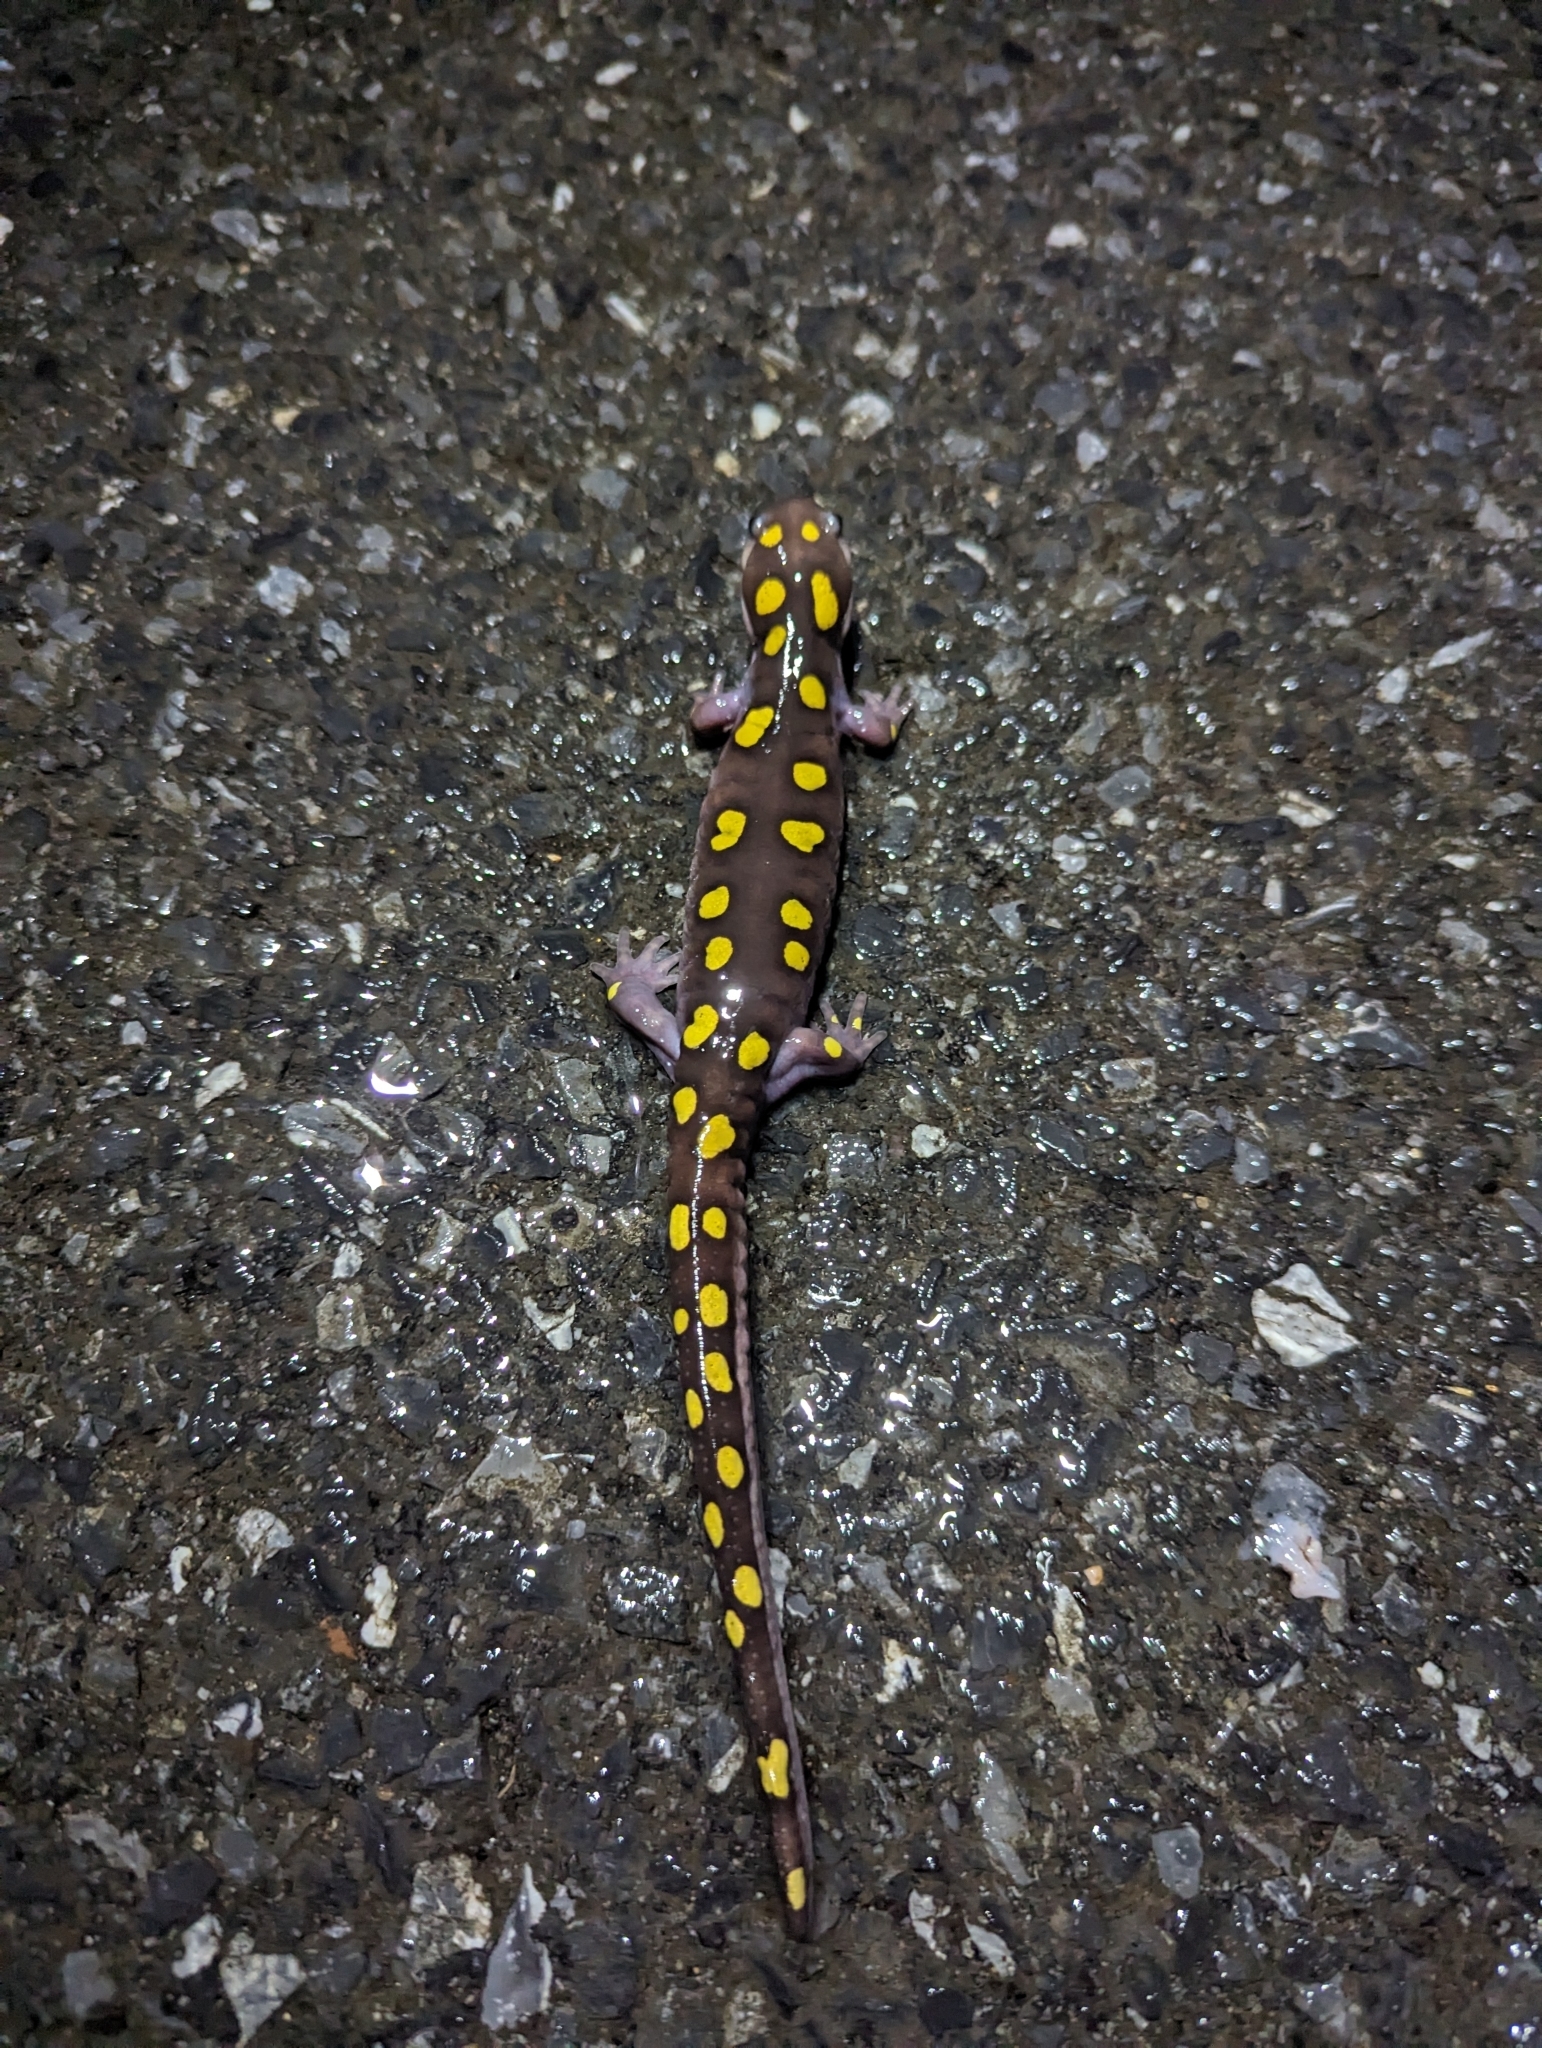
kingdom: Animalia
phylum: Chordata
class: Amphibia
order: Caudata
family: Ambystomatidae
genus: Ambystoma
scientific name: Ambystoma maculatum
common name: Spotted salamander
